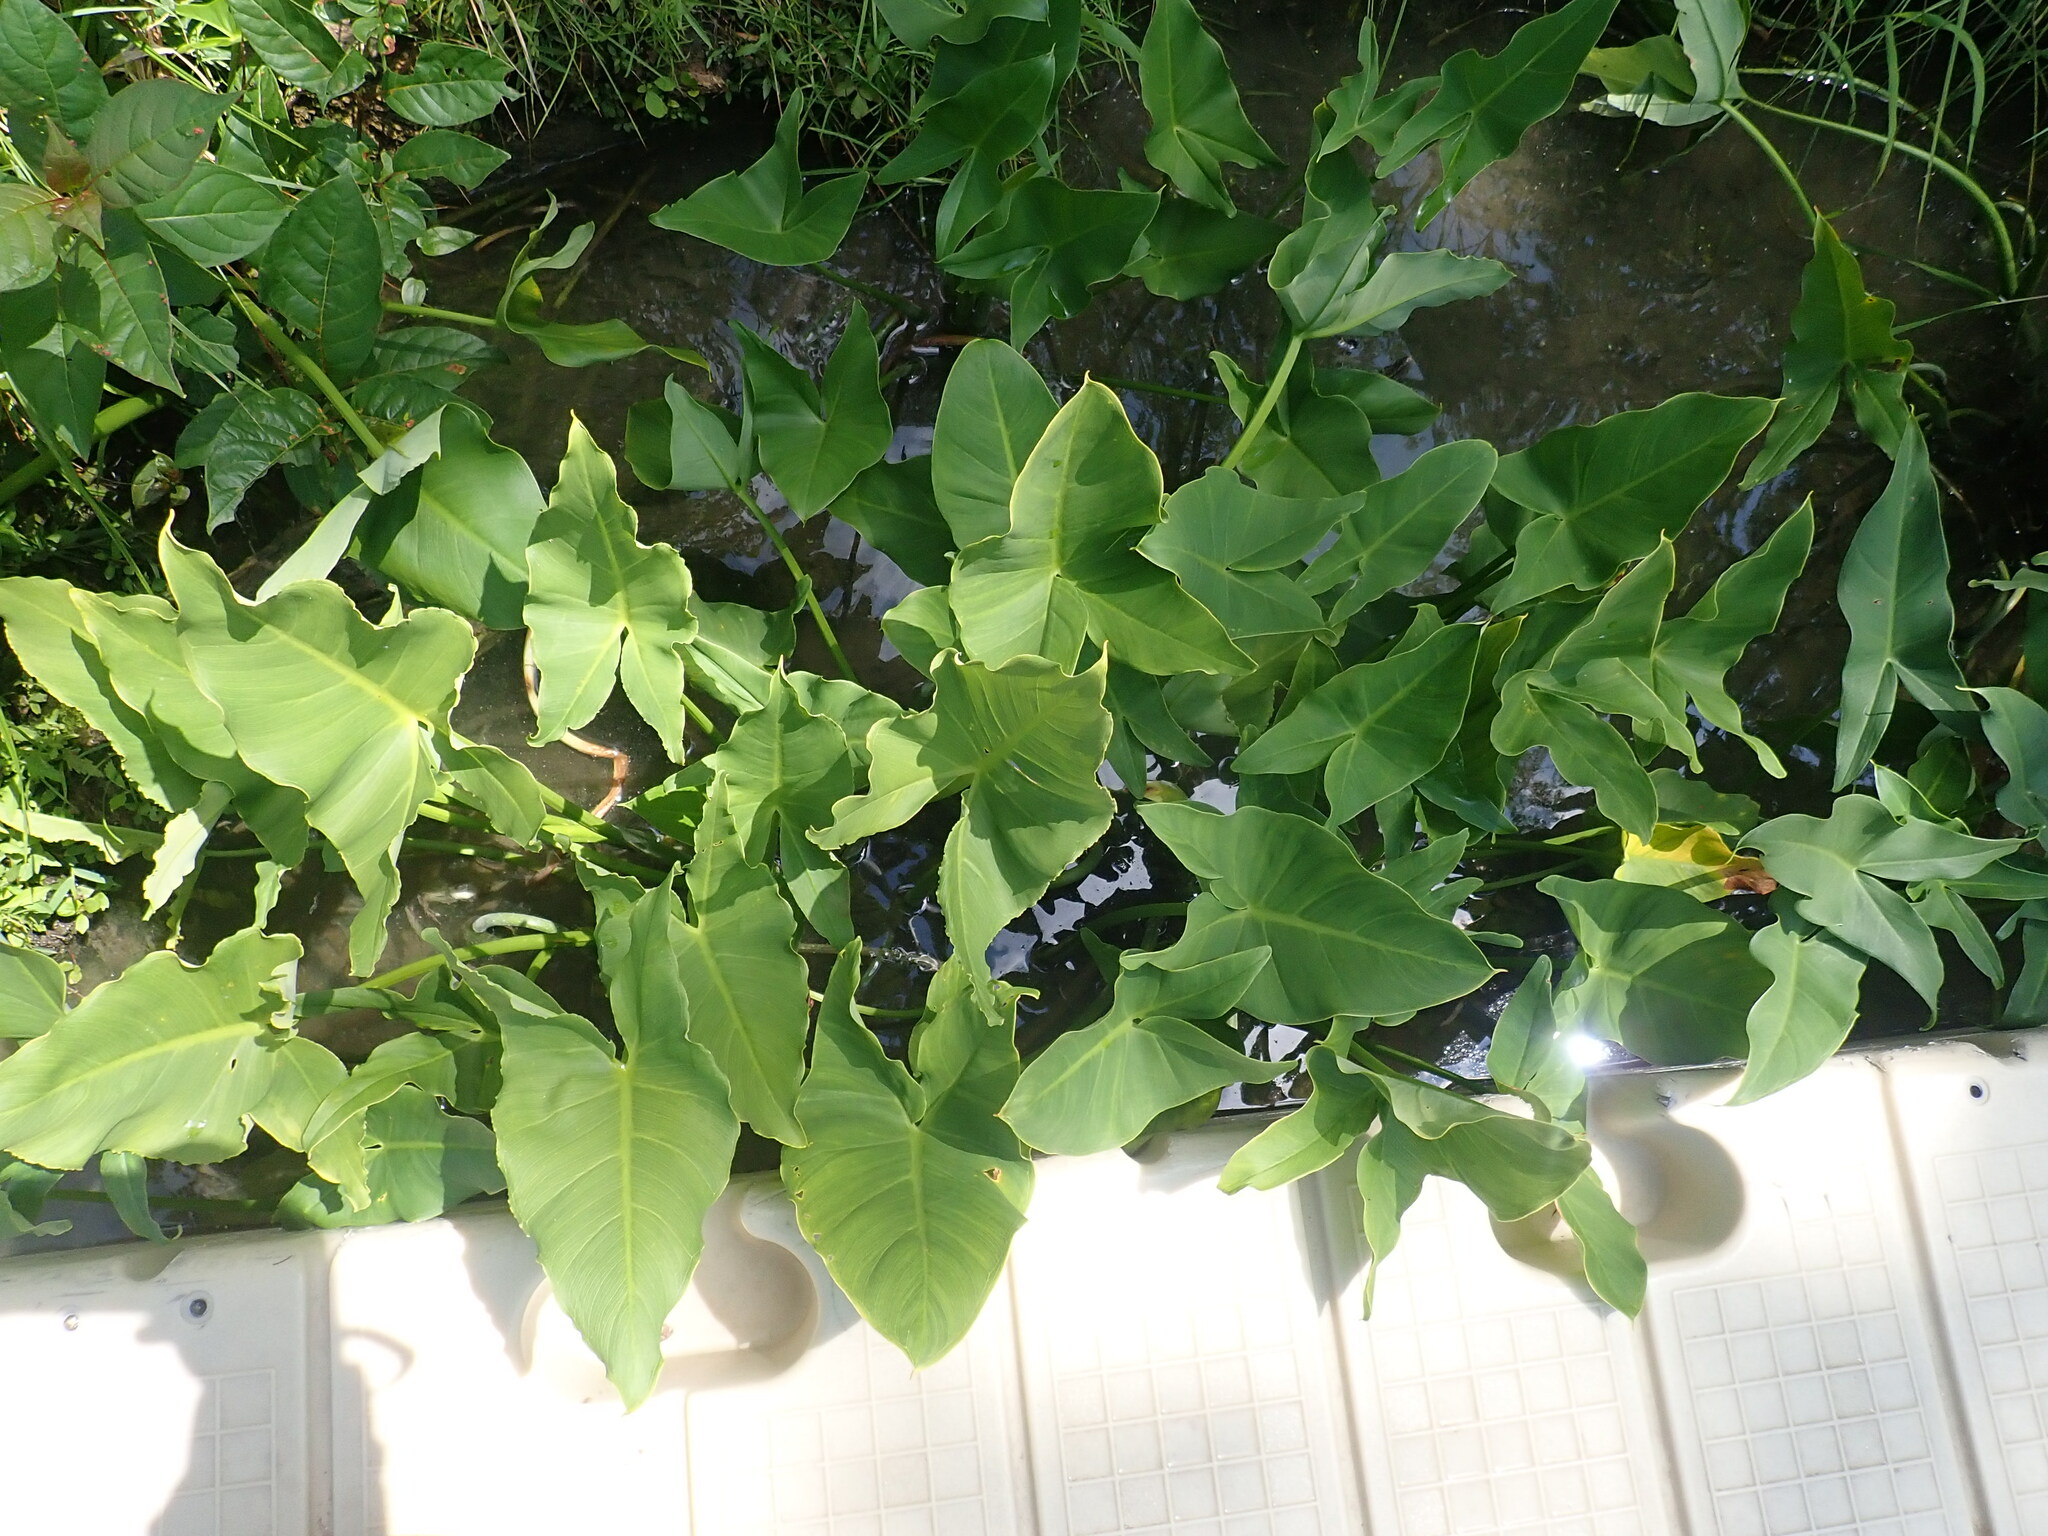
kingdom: Plantae
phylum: Tracheophyta
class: Liliopsida
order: Alismatales
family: Araceae
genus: Peltandra
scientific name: Peltandra virginica
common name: Arrow arum
